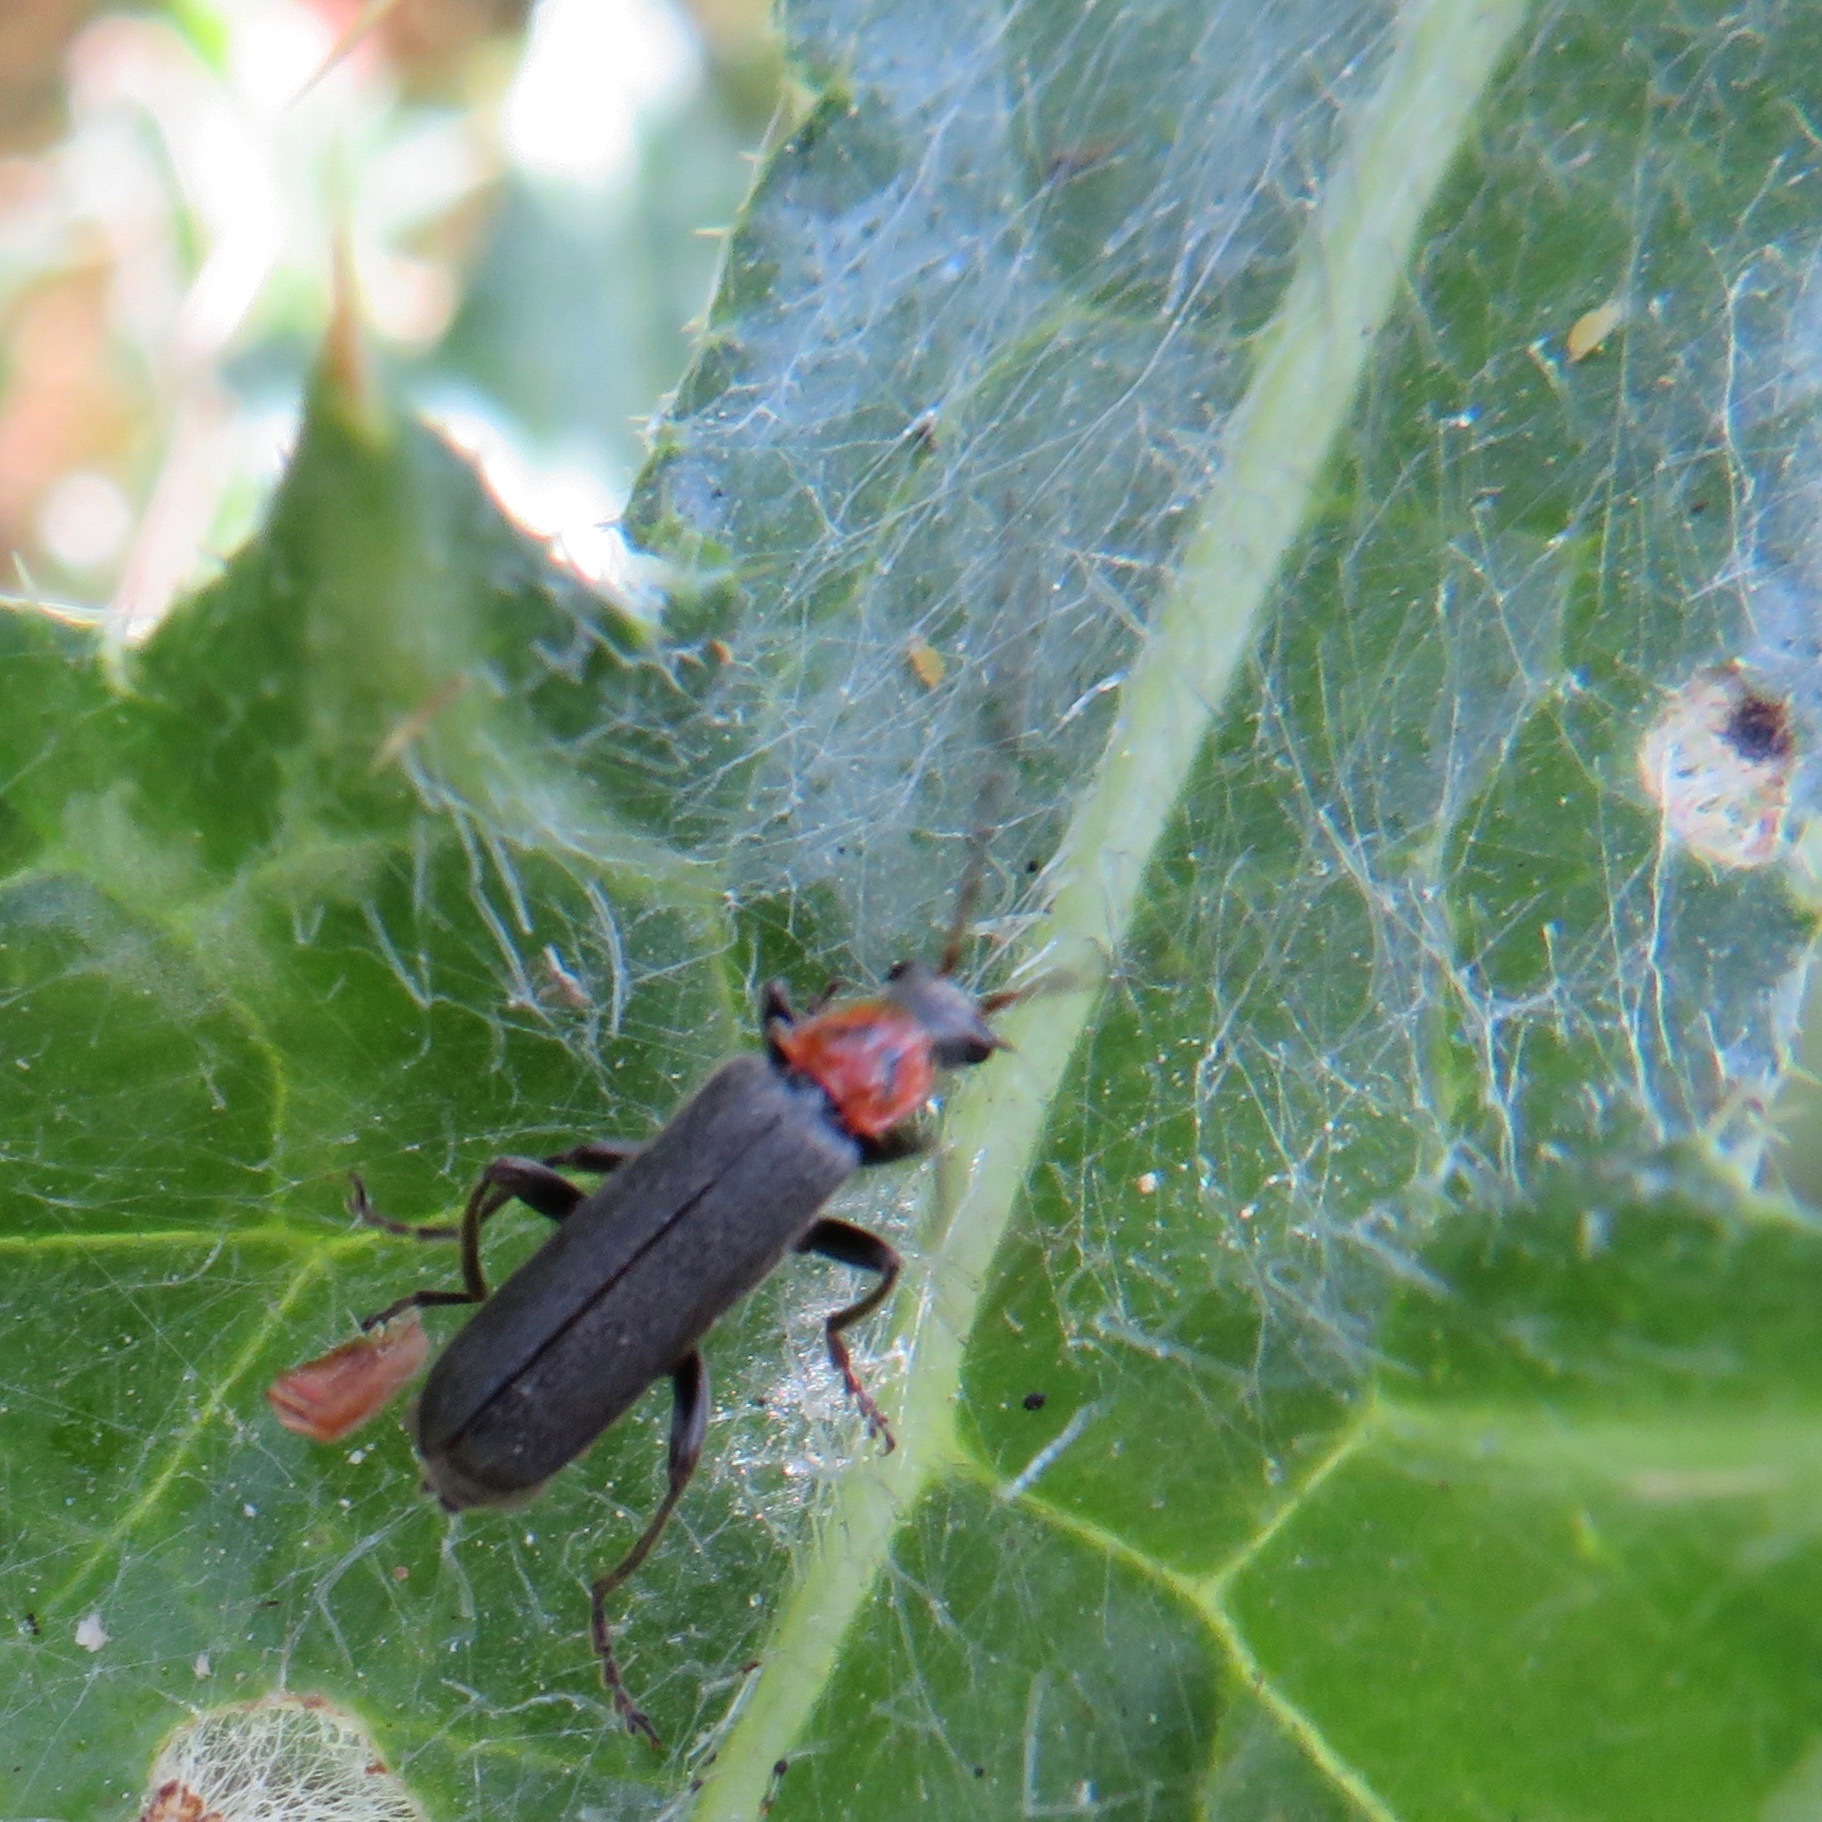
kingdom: Animalia
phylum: Arthropoda
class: Insecta
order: Coleoptera
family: Cantharidae
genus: Cyrtomoptera
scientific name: Cyrtomoptera divisa
